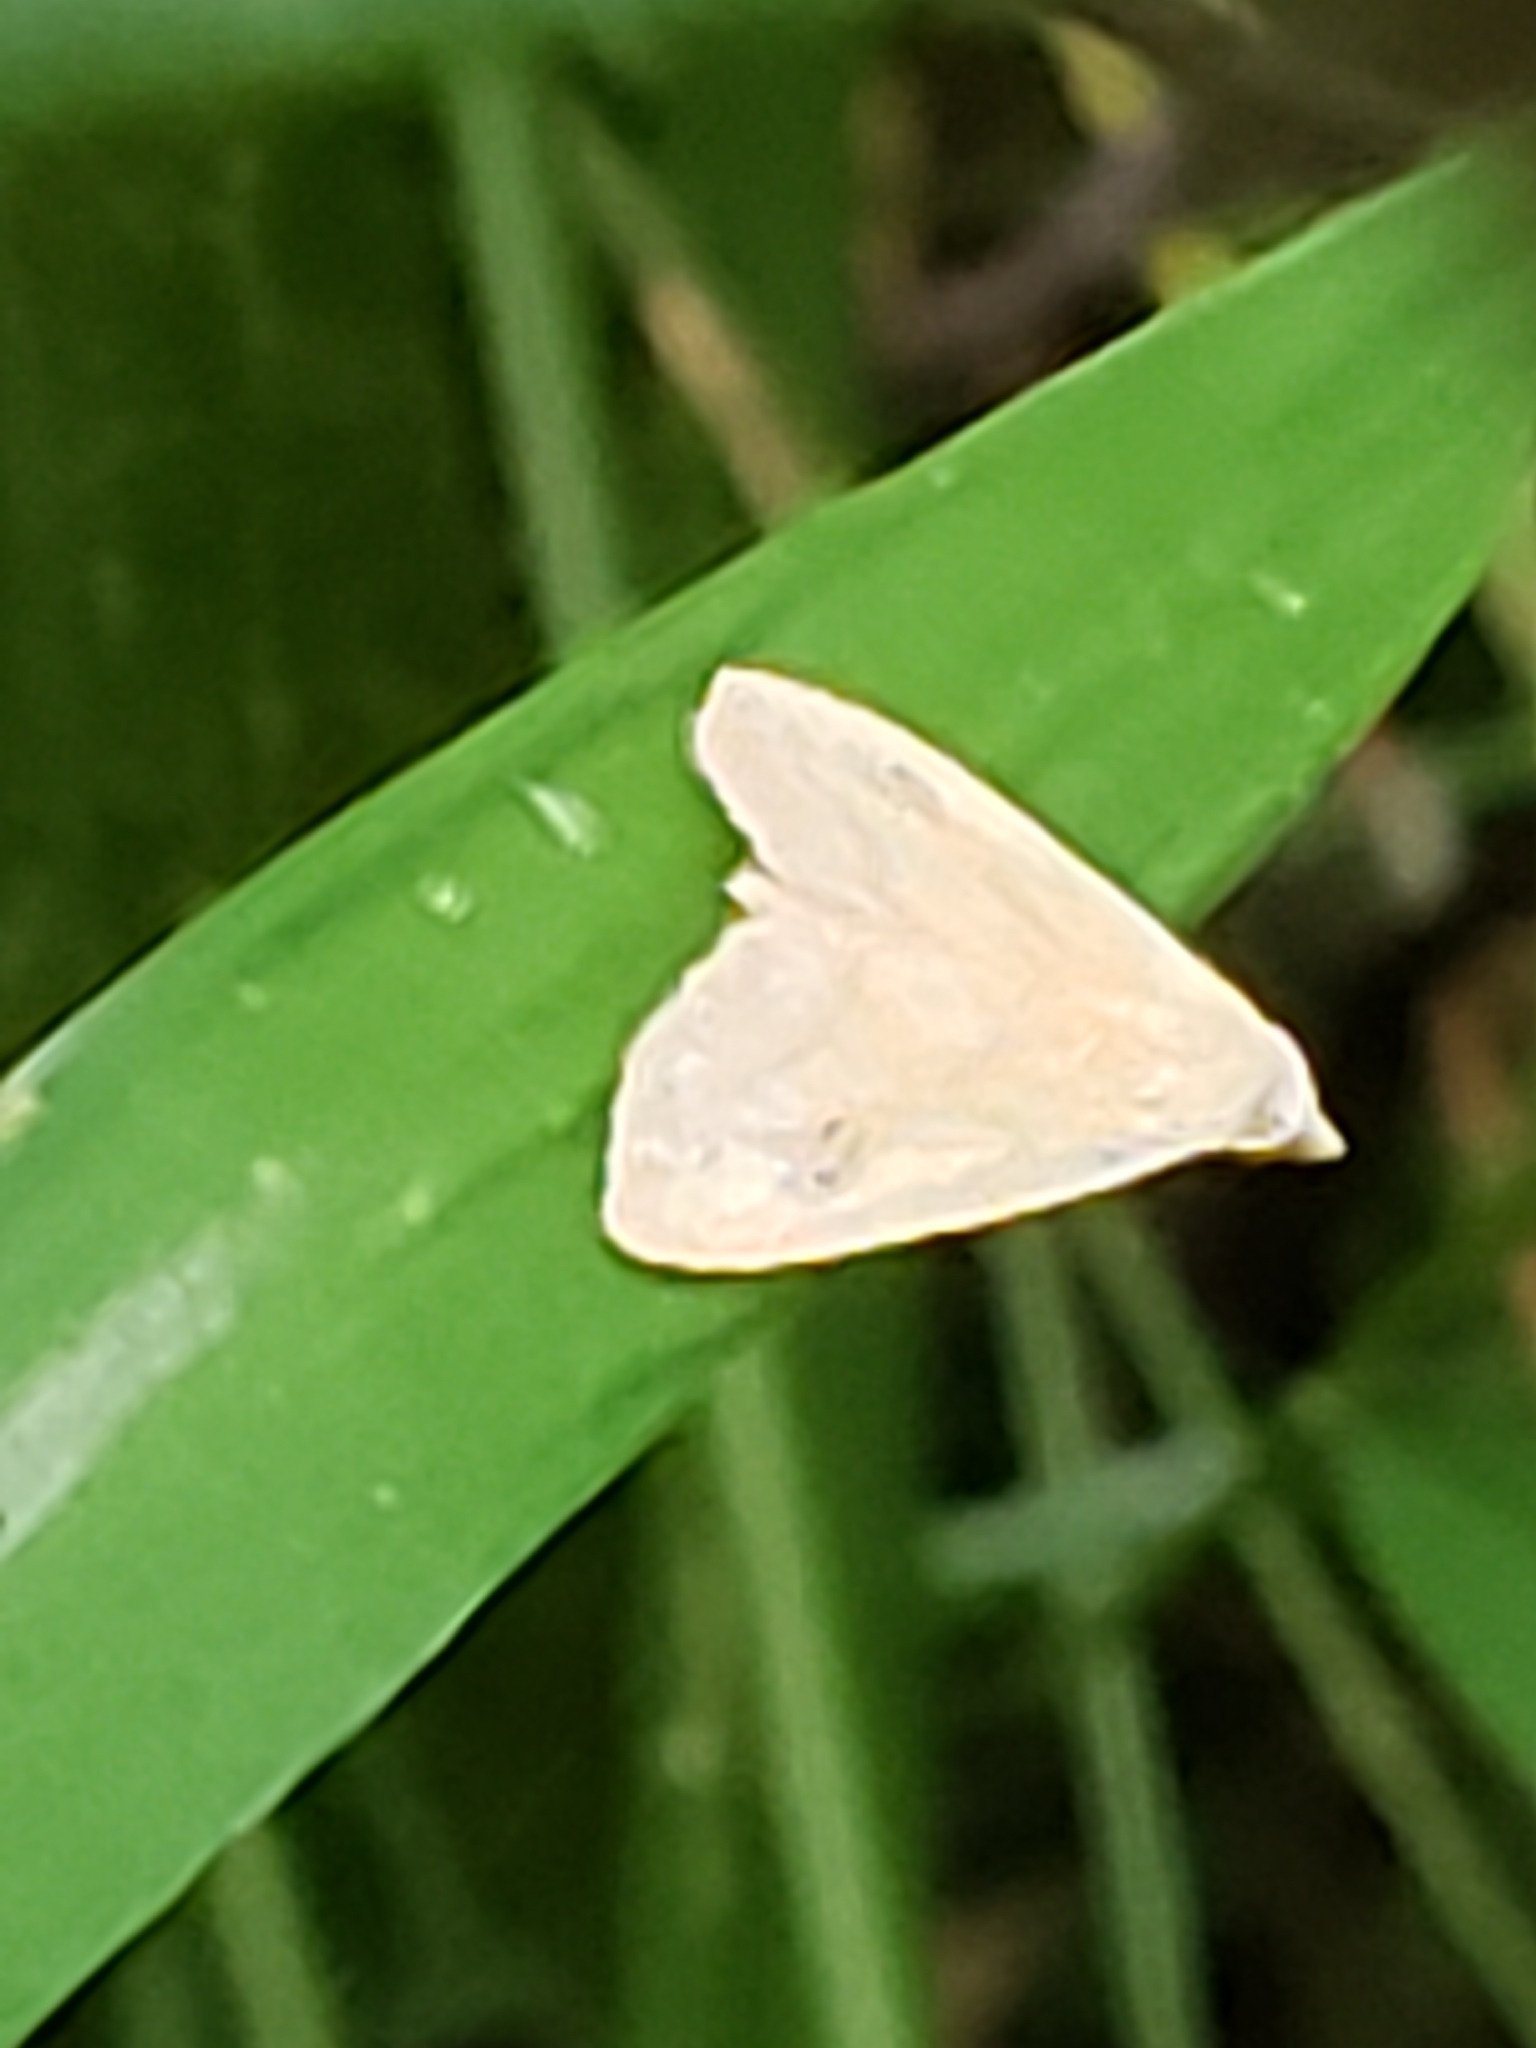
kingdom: Animalia
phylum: Arthropoda
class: Insecta
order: Lepidoptera
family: Erebidae
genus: Rivula
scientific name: Rivula propinqualis
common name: Spotted grass moth
